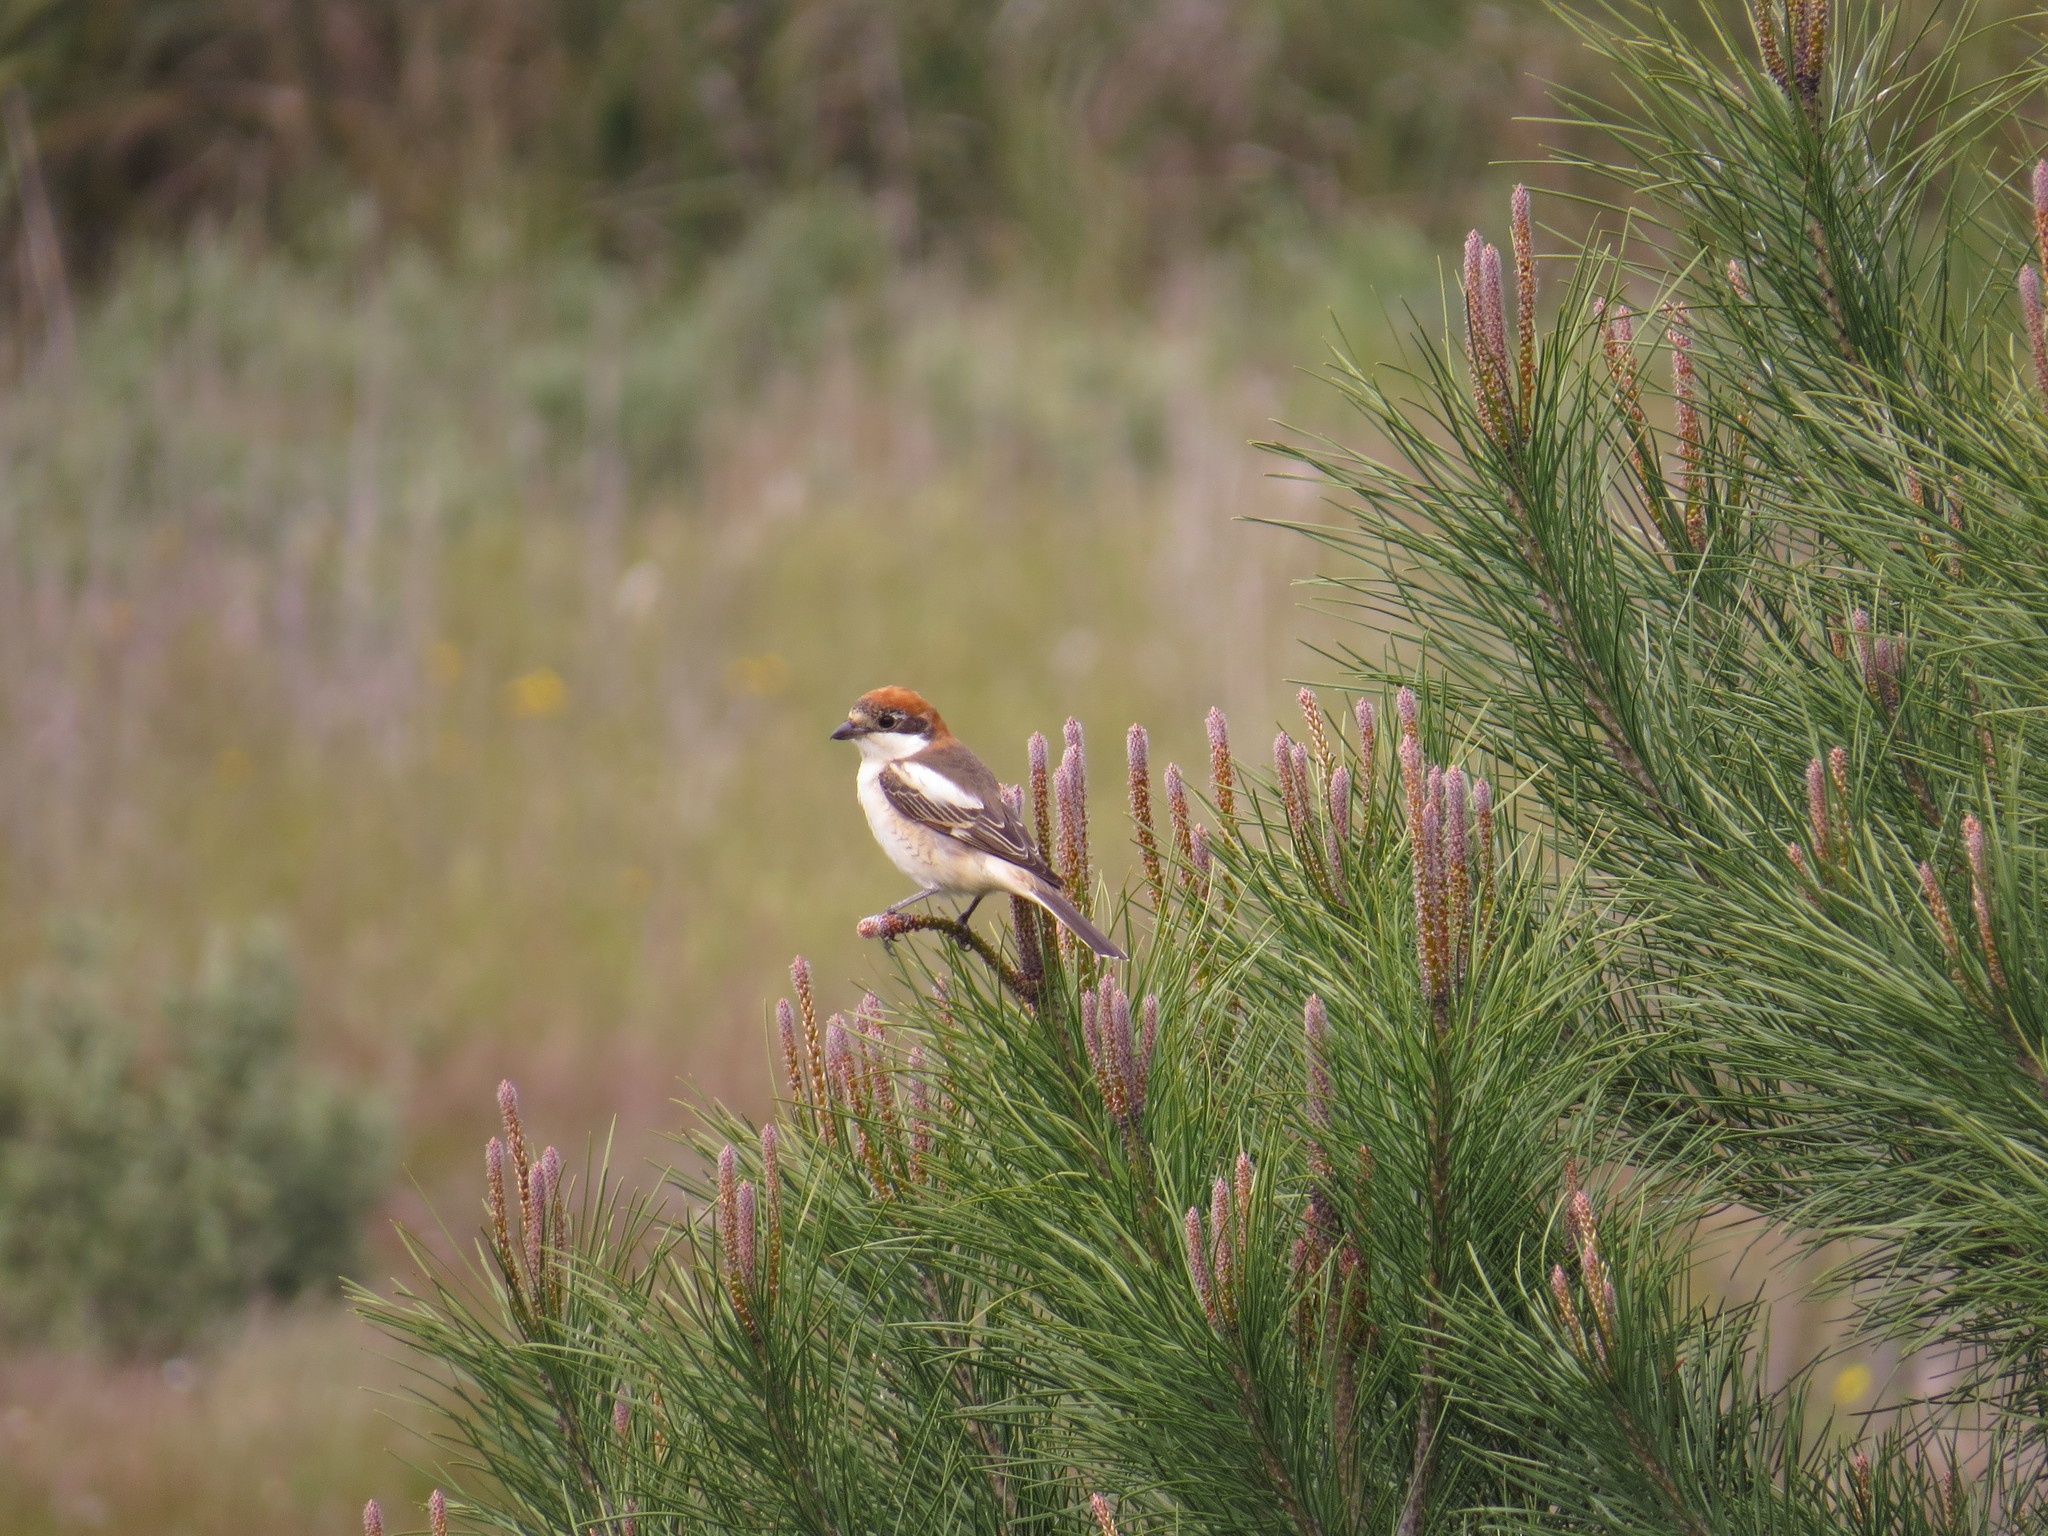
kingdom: Animalia
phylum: Chordata
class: Aves
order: Passeriformes
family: Laniidae
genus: Lanius
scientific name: Lanius senator
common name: Woodchat shrike
